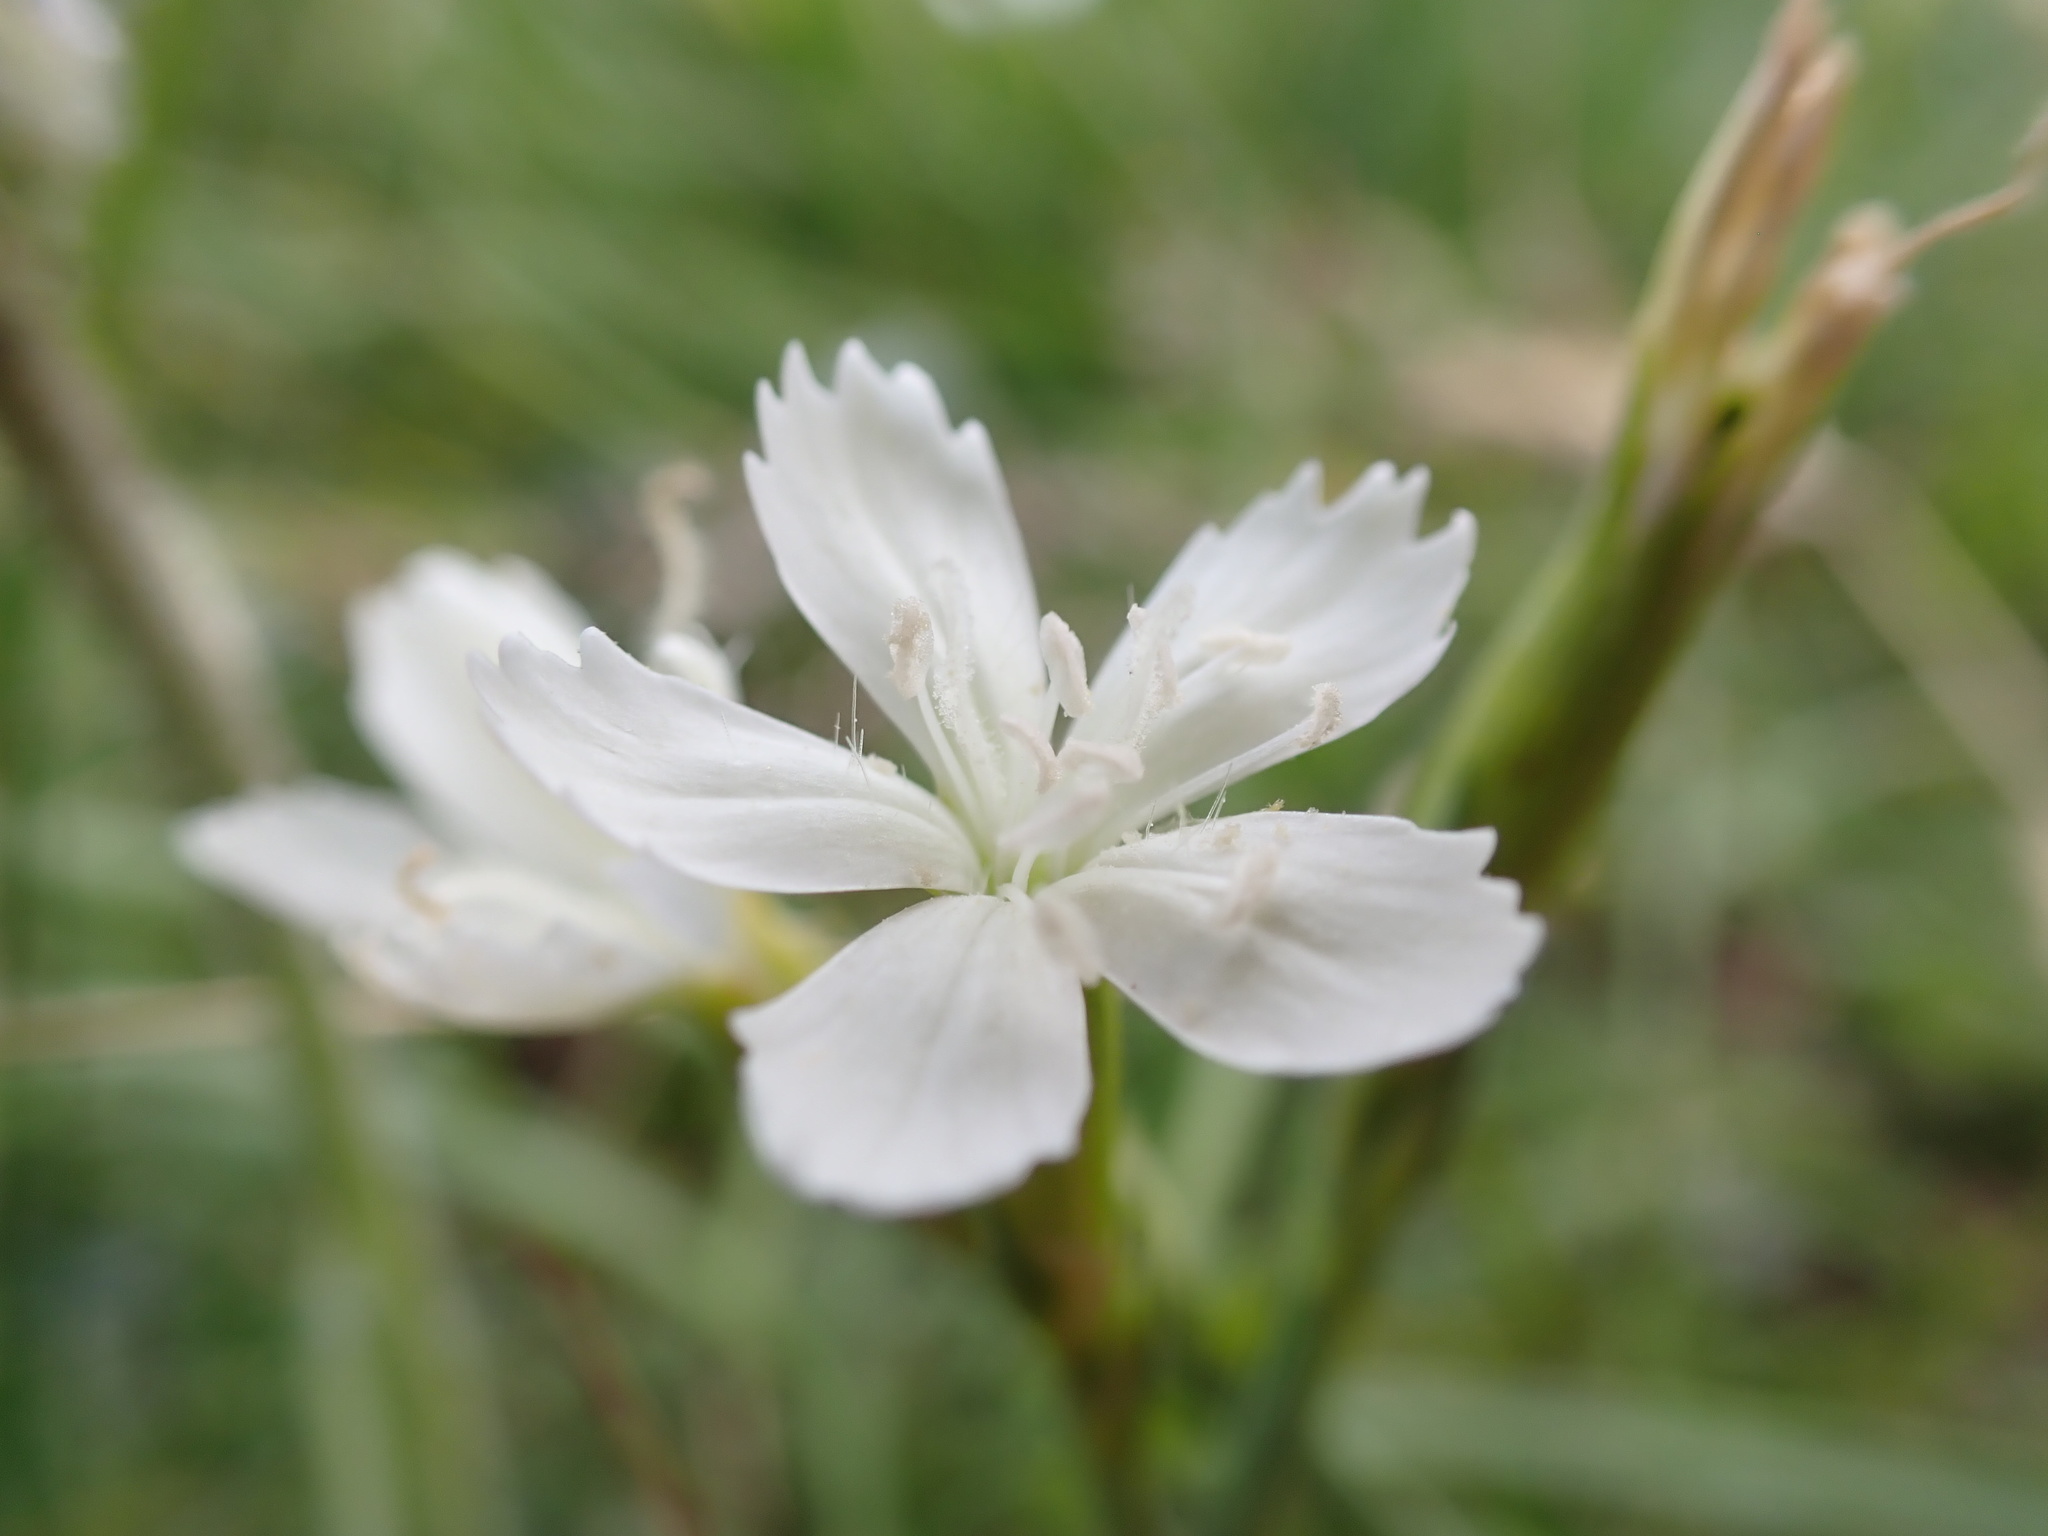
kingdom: Plantae
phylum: Tracheophyta
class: Magnoliopsida
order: Caryophyllales
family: Caryophyllaceae
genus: Dianthus
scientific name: Dianthus deltoides
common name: Maiden pink
